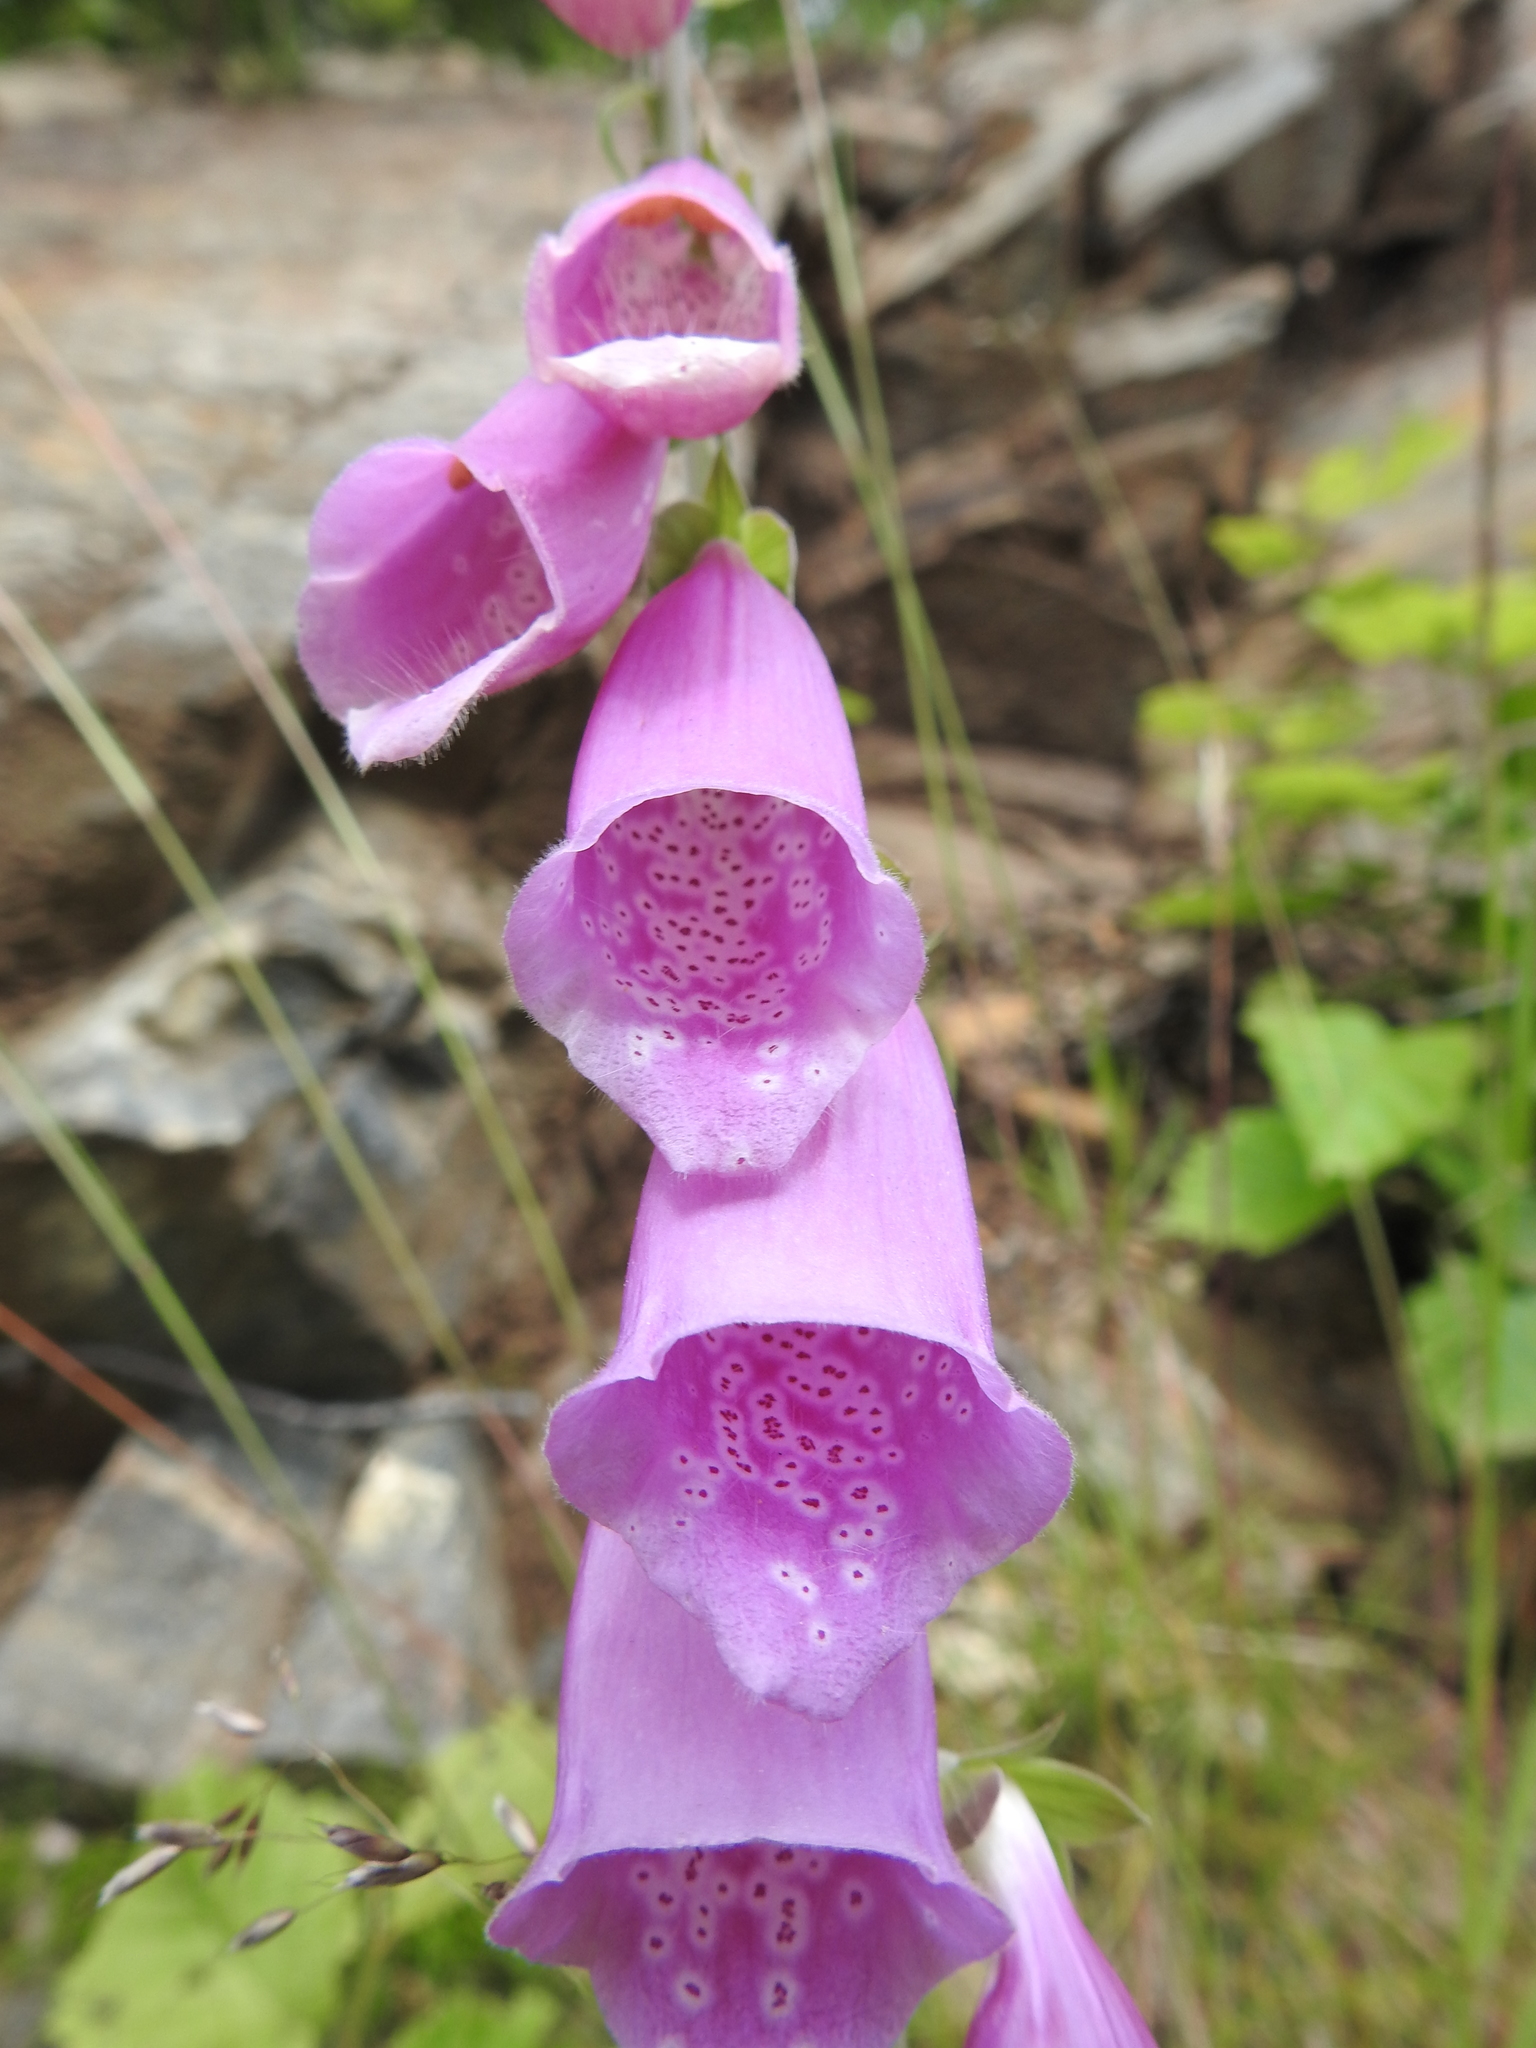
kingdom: Plantae
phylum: Tracheophyta
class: Magnoliopsida
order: Lamiales
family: Plantaginaceae
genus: Digitalis
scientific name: Digitalis purpurea
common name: Foxglove
